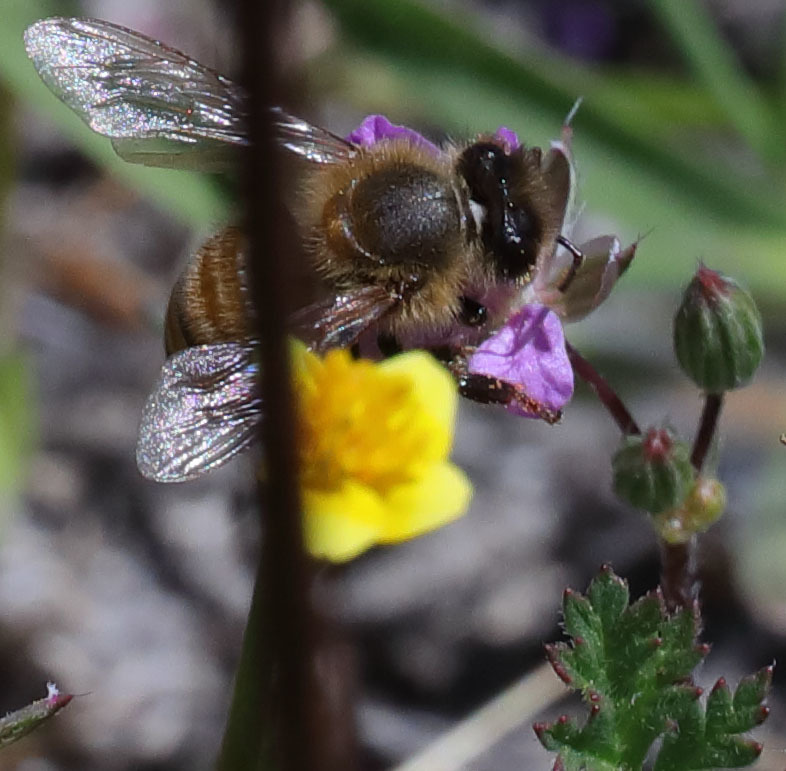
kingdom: Animalia
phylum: Arthropoda
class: Insecta
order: Hymenoptera
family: Apidae
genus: Apis
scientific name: Apis mellifera
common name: Honey bee
